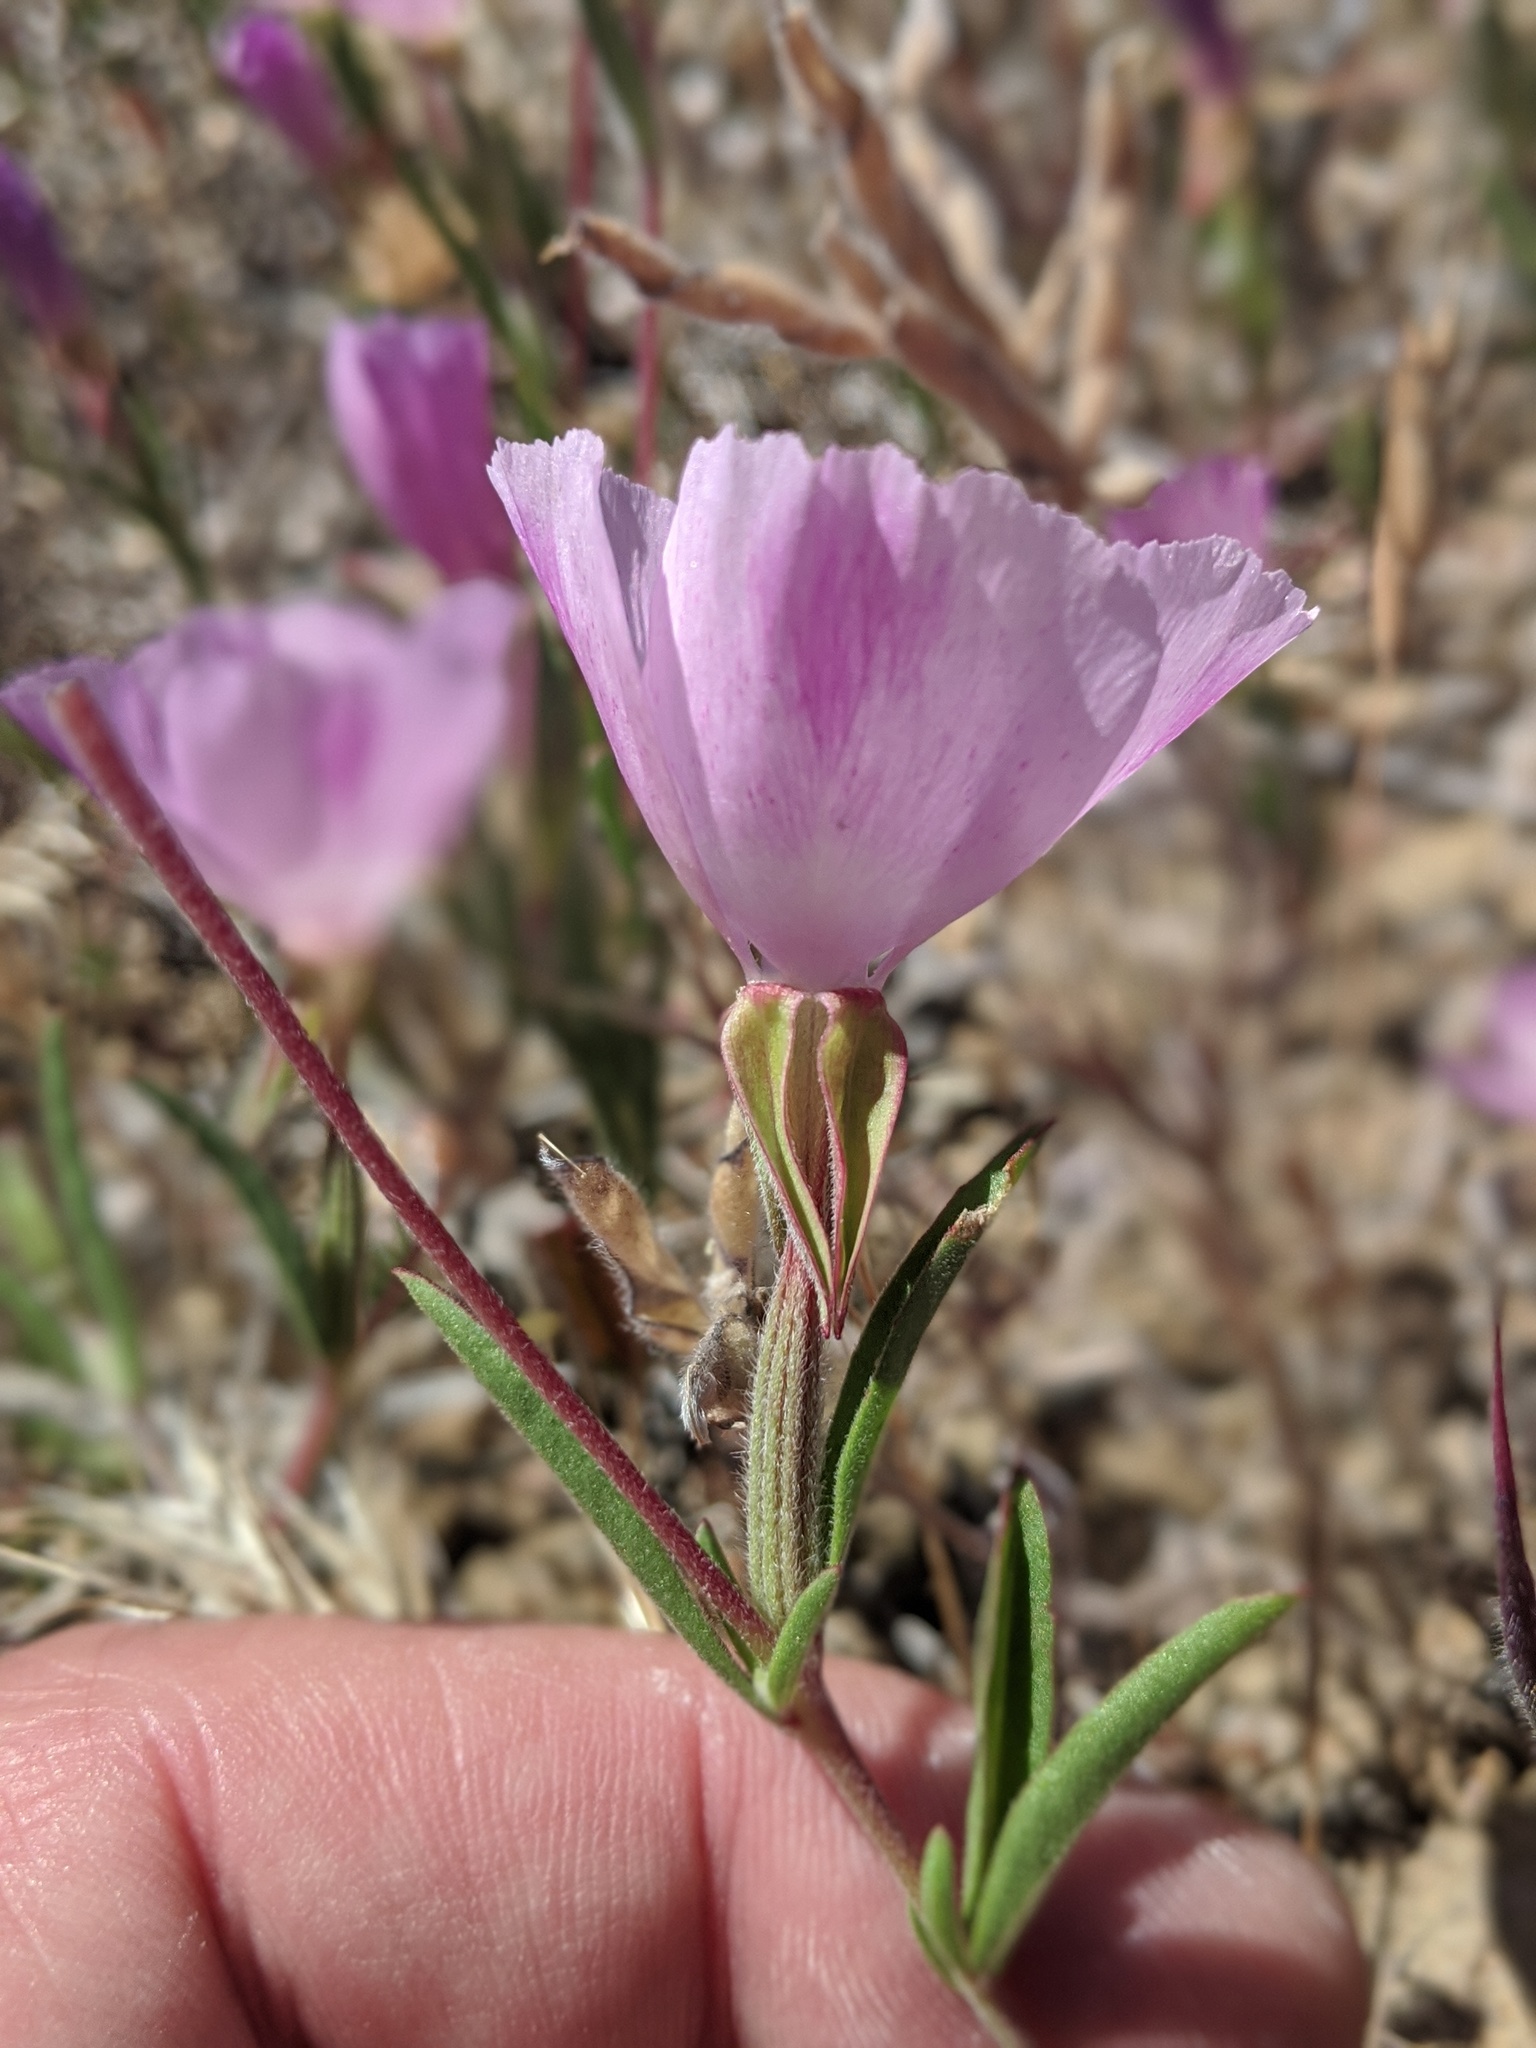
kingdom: Plantae
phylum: Tracheophyta
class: Magnoliopsida
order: Myrtales
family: Onagraceae
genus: Clarkia
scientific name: Clarkia purpurea
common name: Purple clarkia
